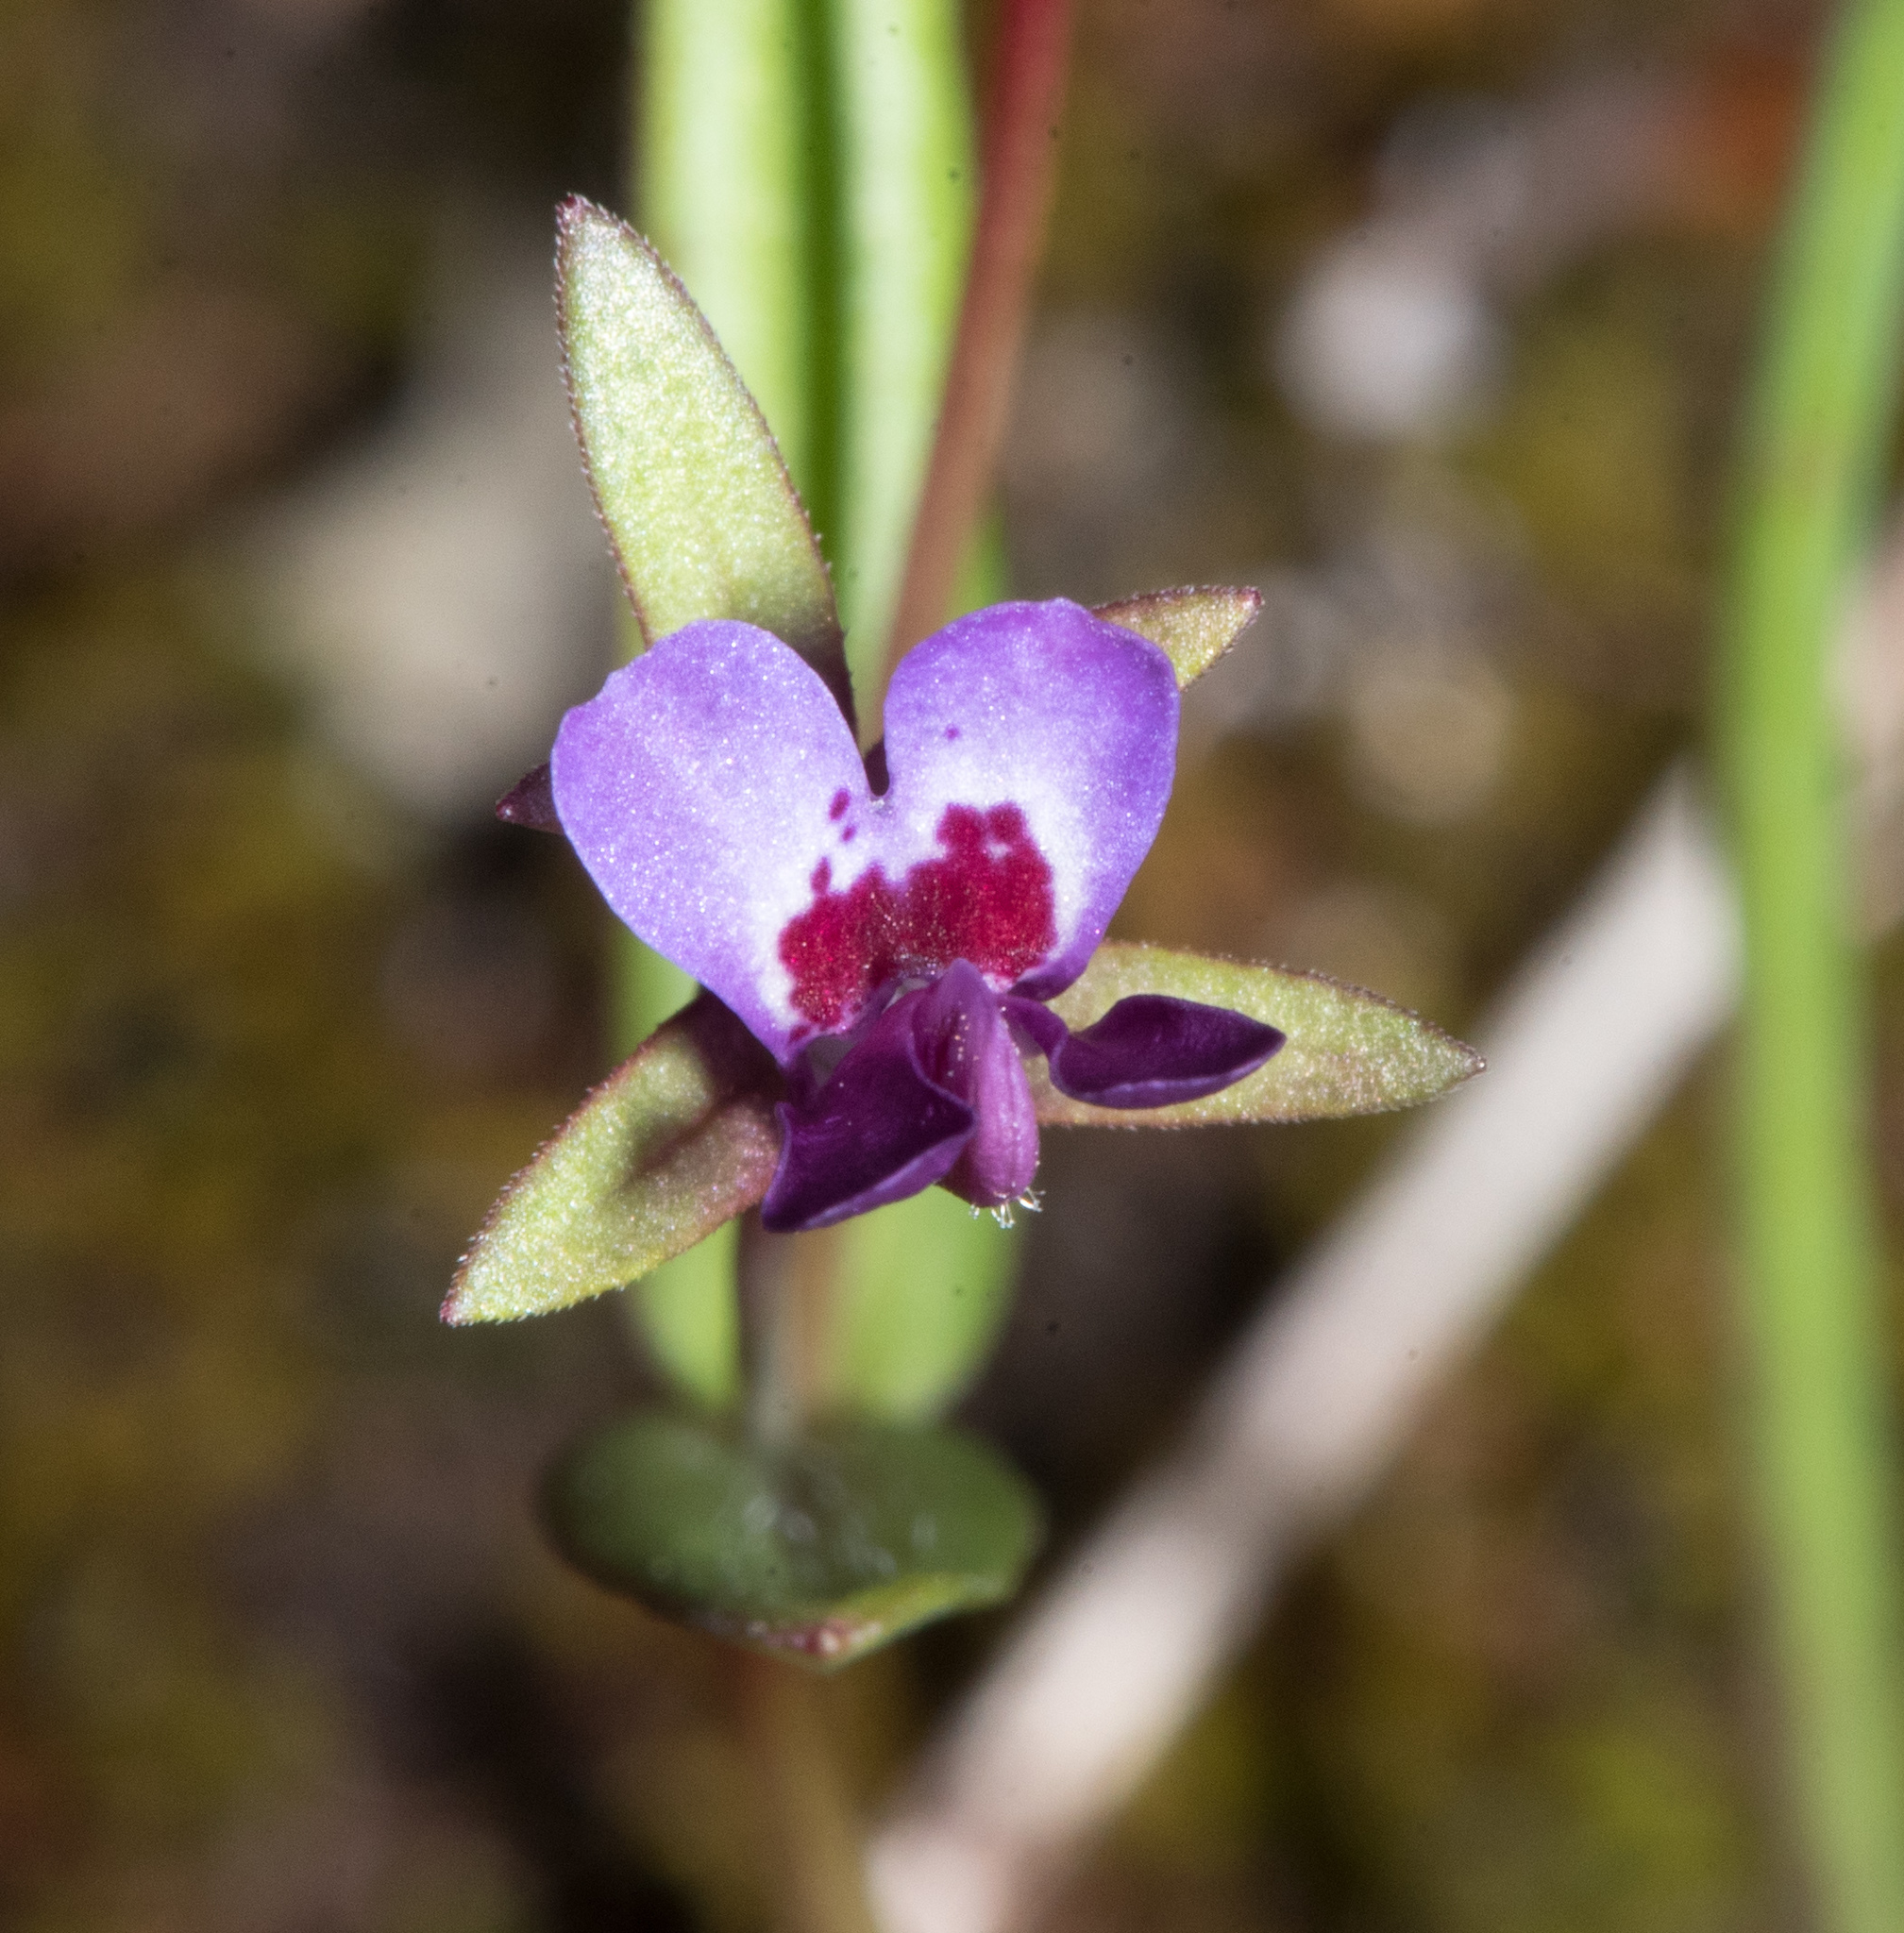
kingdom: Plantae
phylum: Tracheophyta
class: Magnoliopsida
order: Lamiales
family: Plantaginaceae
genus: Collinsia
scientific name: Collinsia sparsiflora
